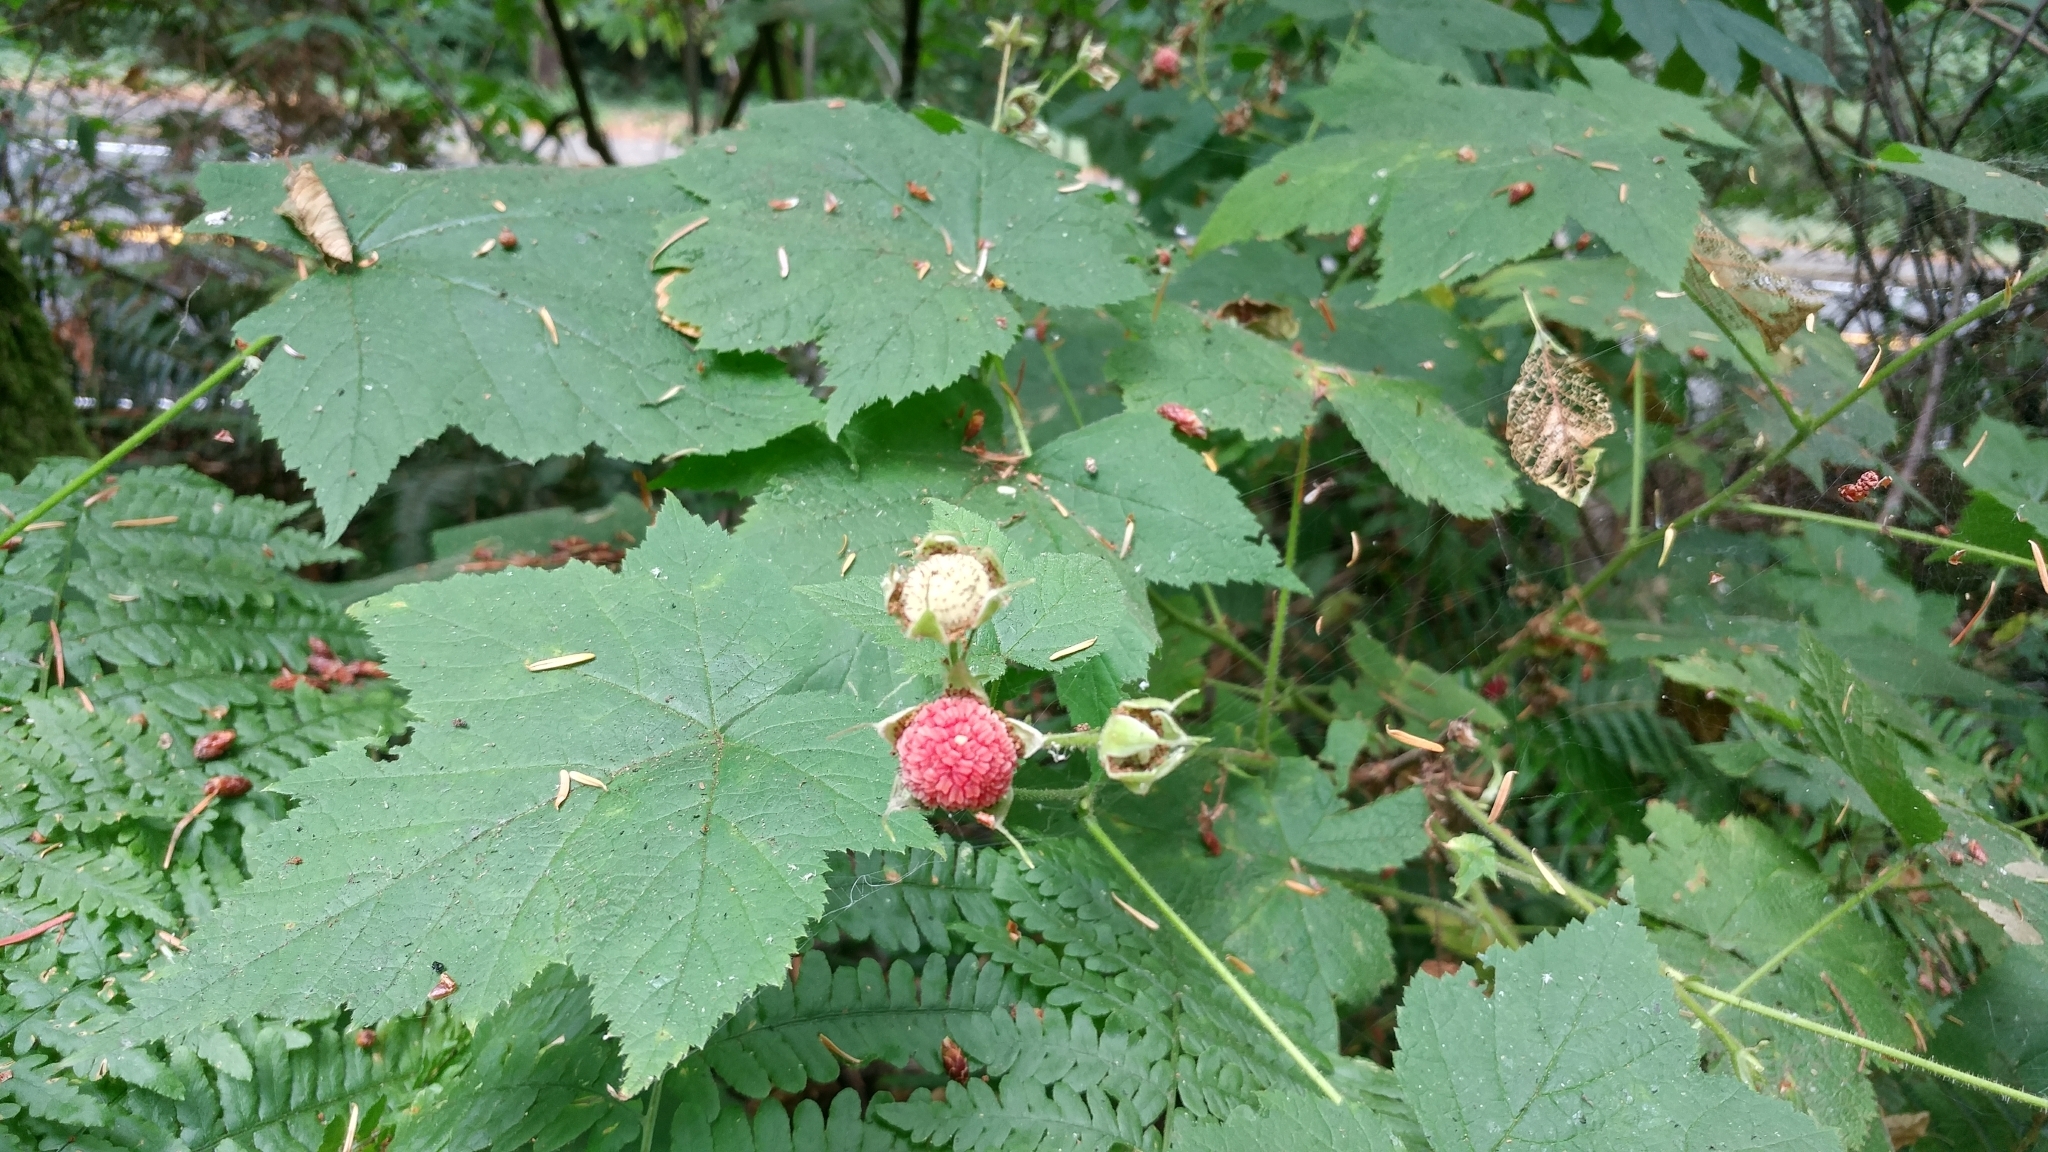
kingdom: Plantae
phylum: Tracheophyta
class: Magnoliopsida
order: Rosales
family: Rosaceae
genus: Rubus
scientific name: Rubus parviflorus
